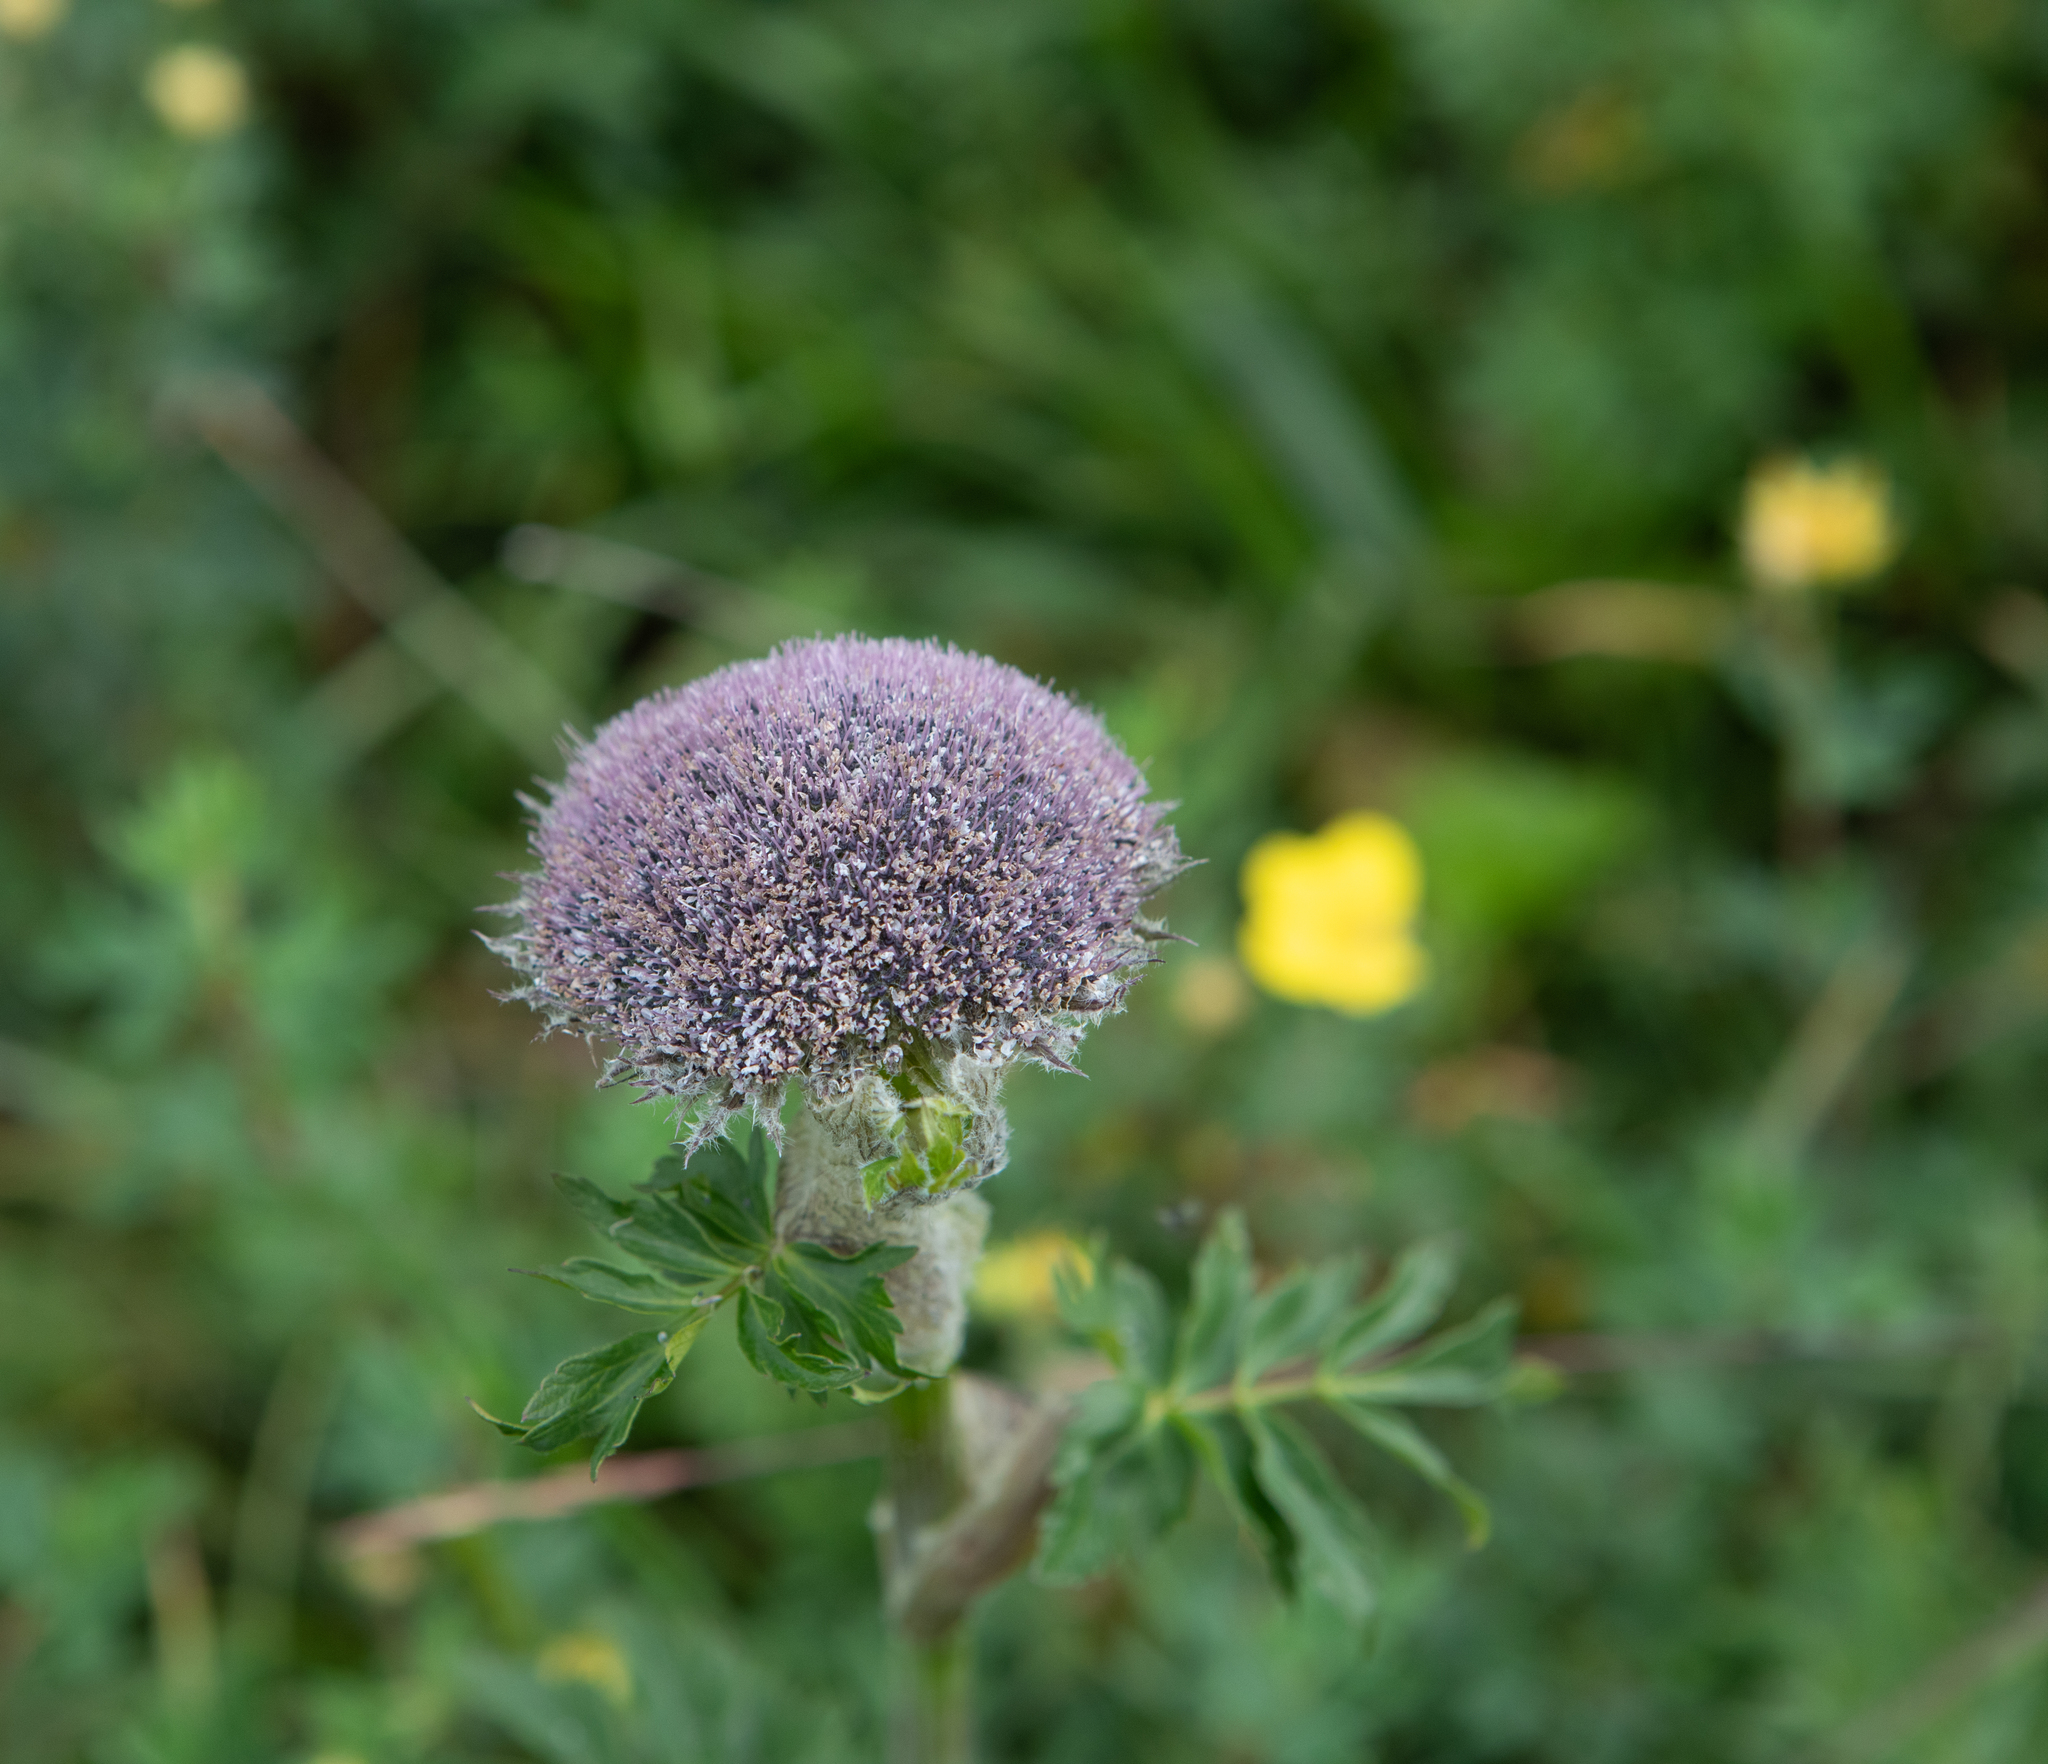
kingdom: Plantae
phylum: Tracheophyta
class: Magnoliopsida
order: Apiales
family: Apiaceae
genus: Sajanella
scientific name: Sajanella monstrosa
